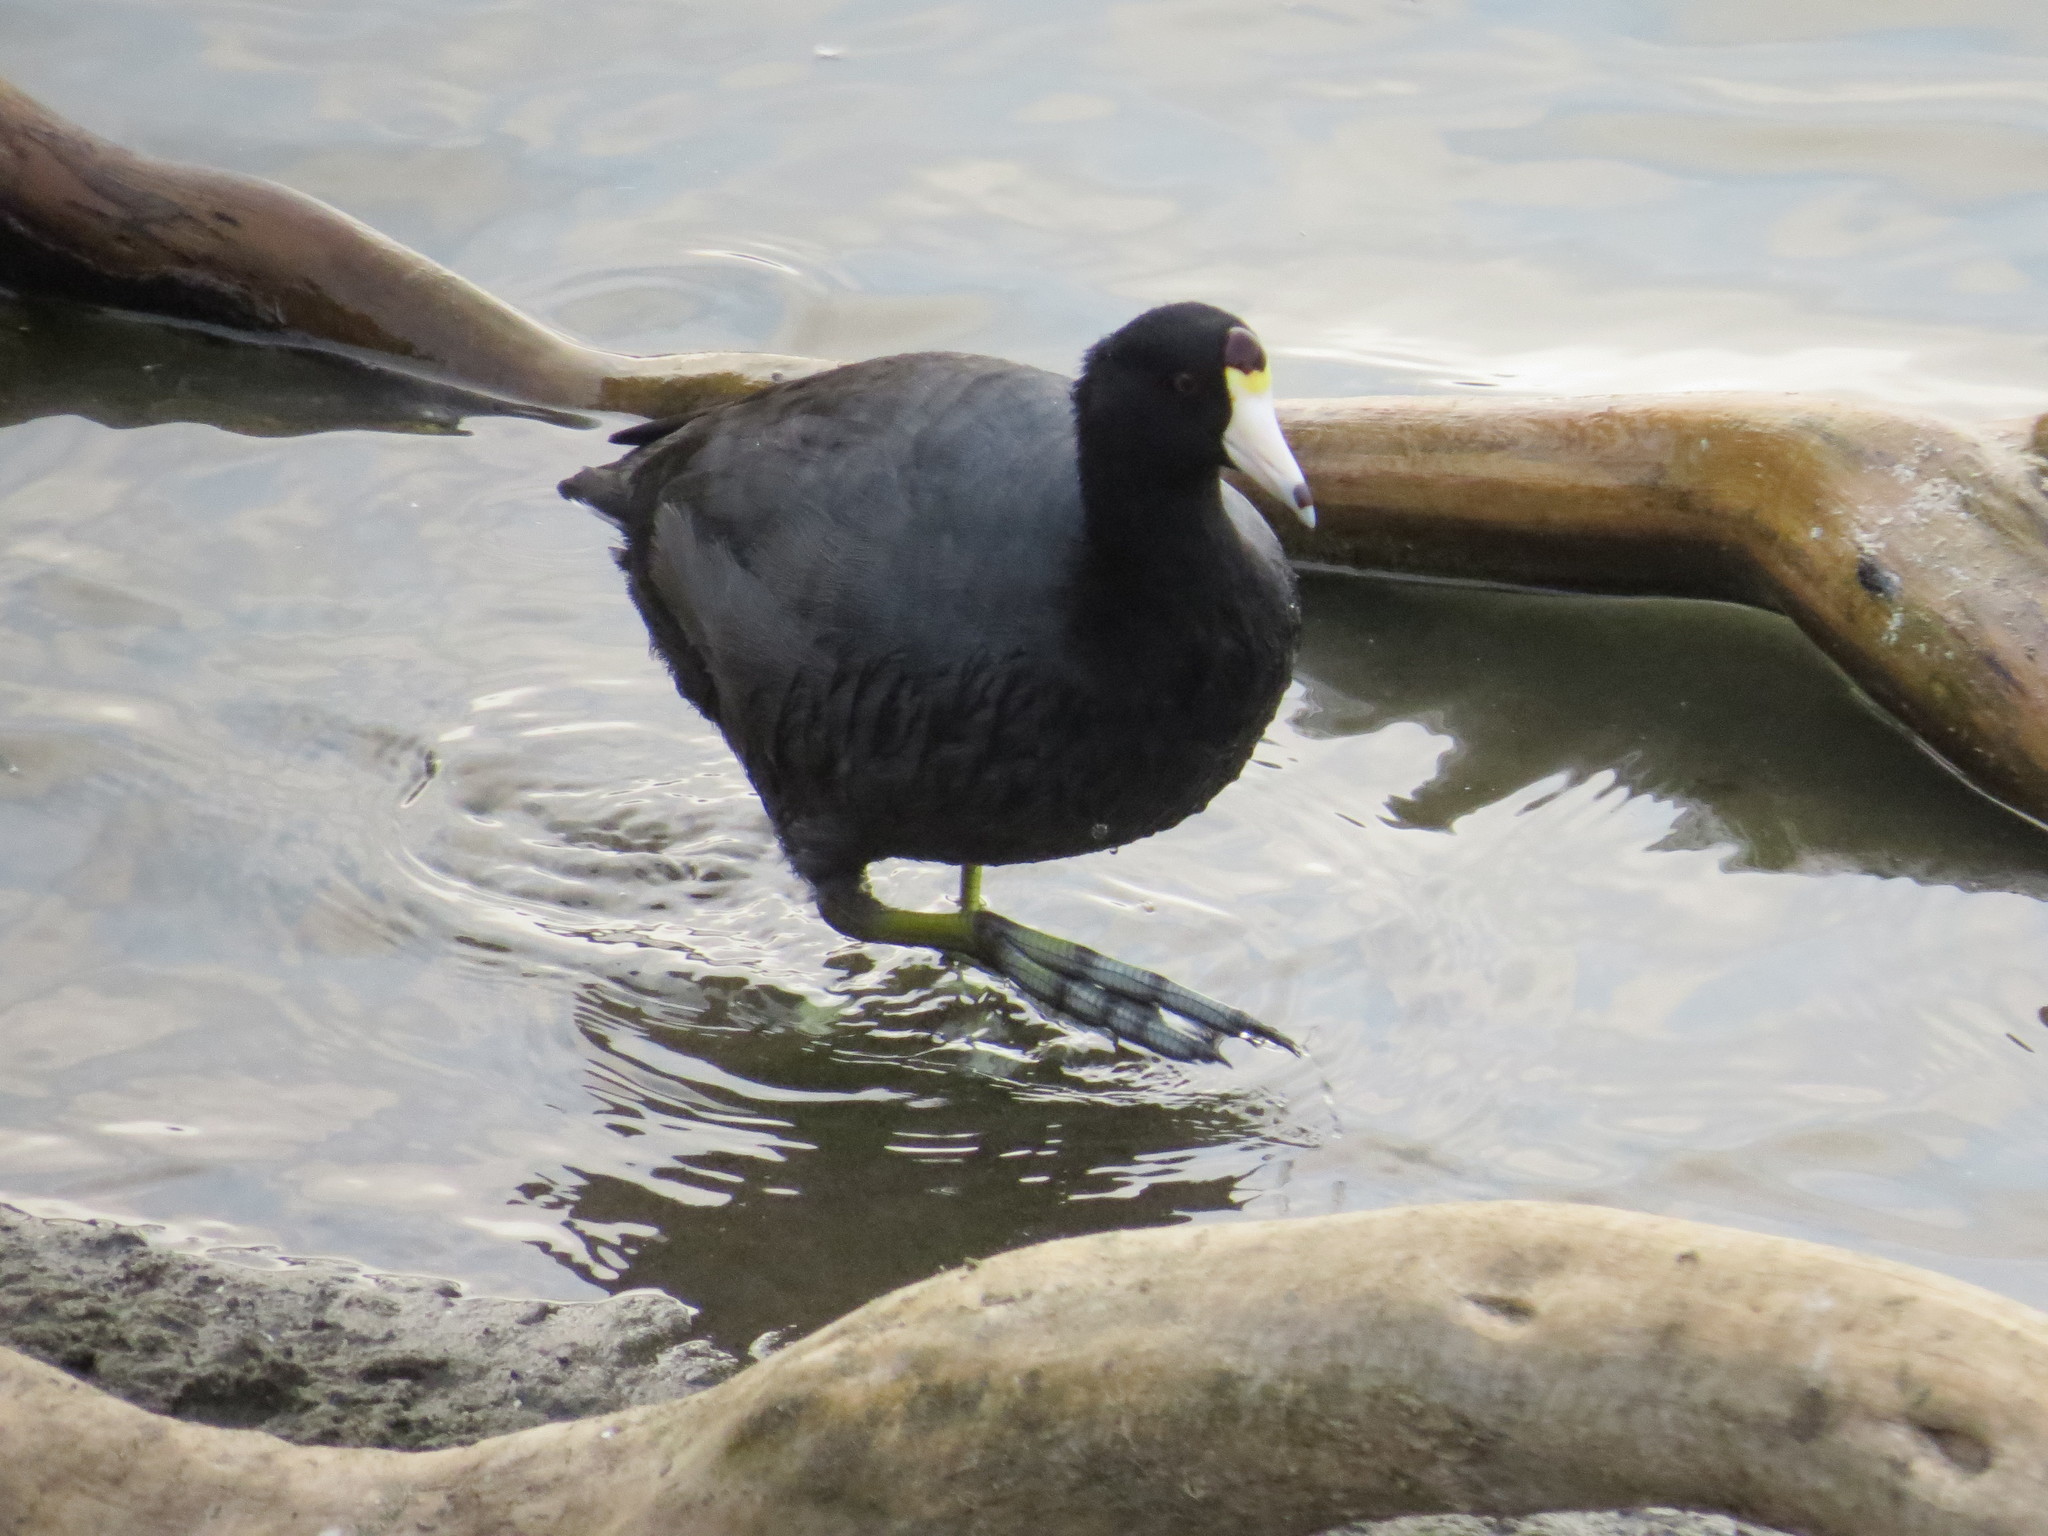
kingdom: Animalia
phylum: Chordata
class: Aves
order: Gruiformes
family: Rallidae
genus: Fulica
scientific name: Fulica americana
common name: American coot
